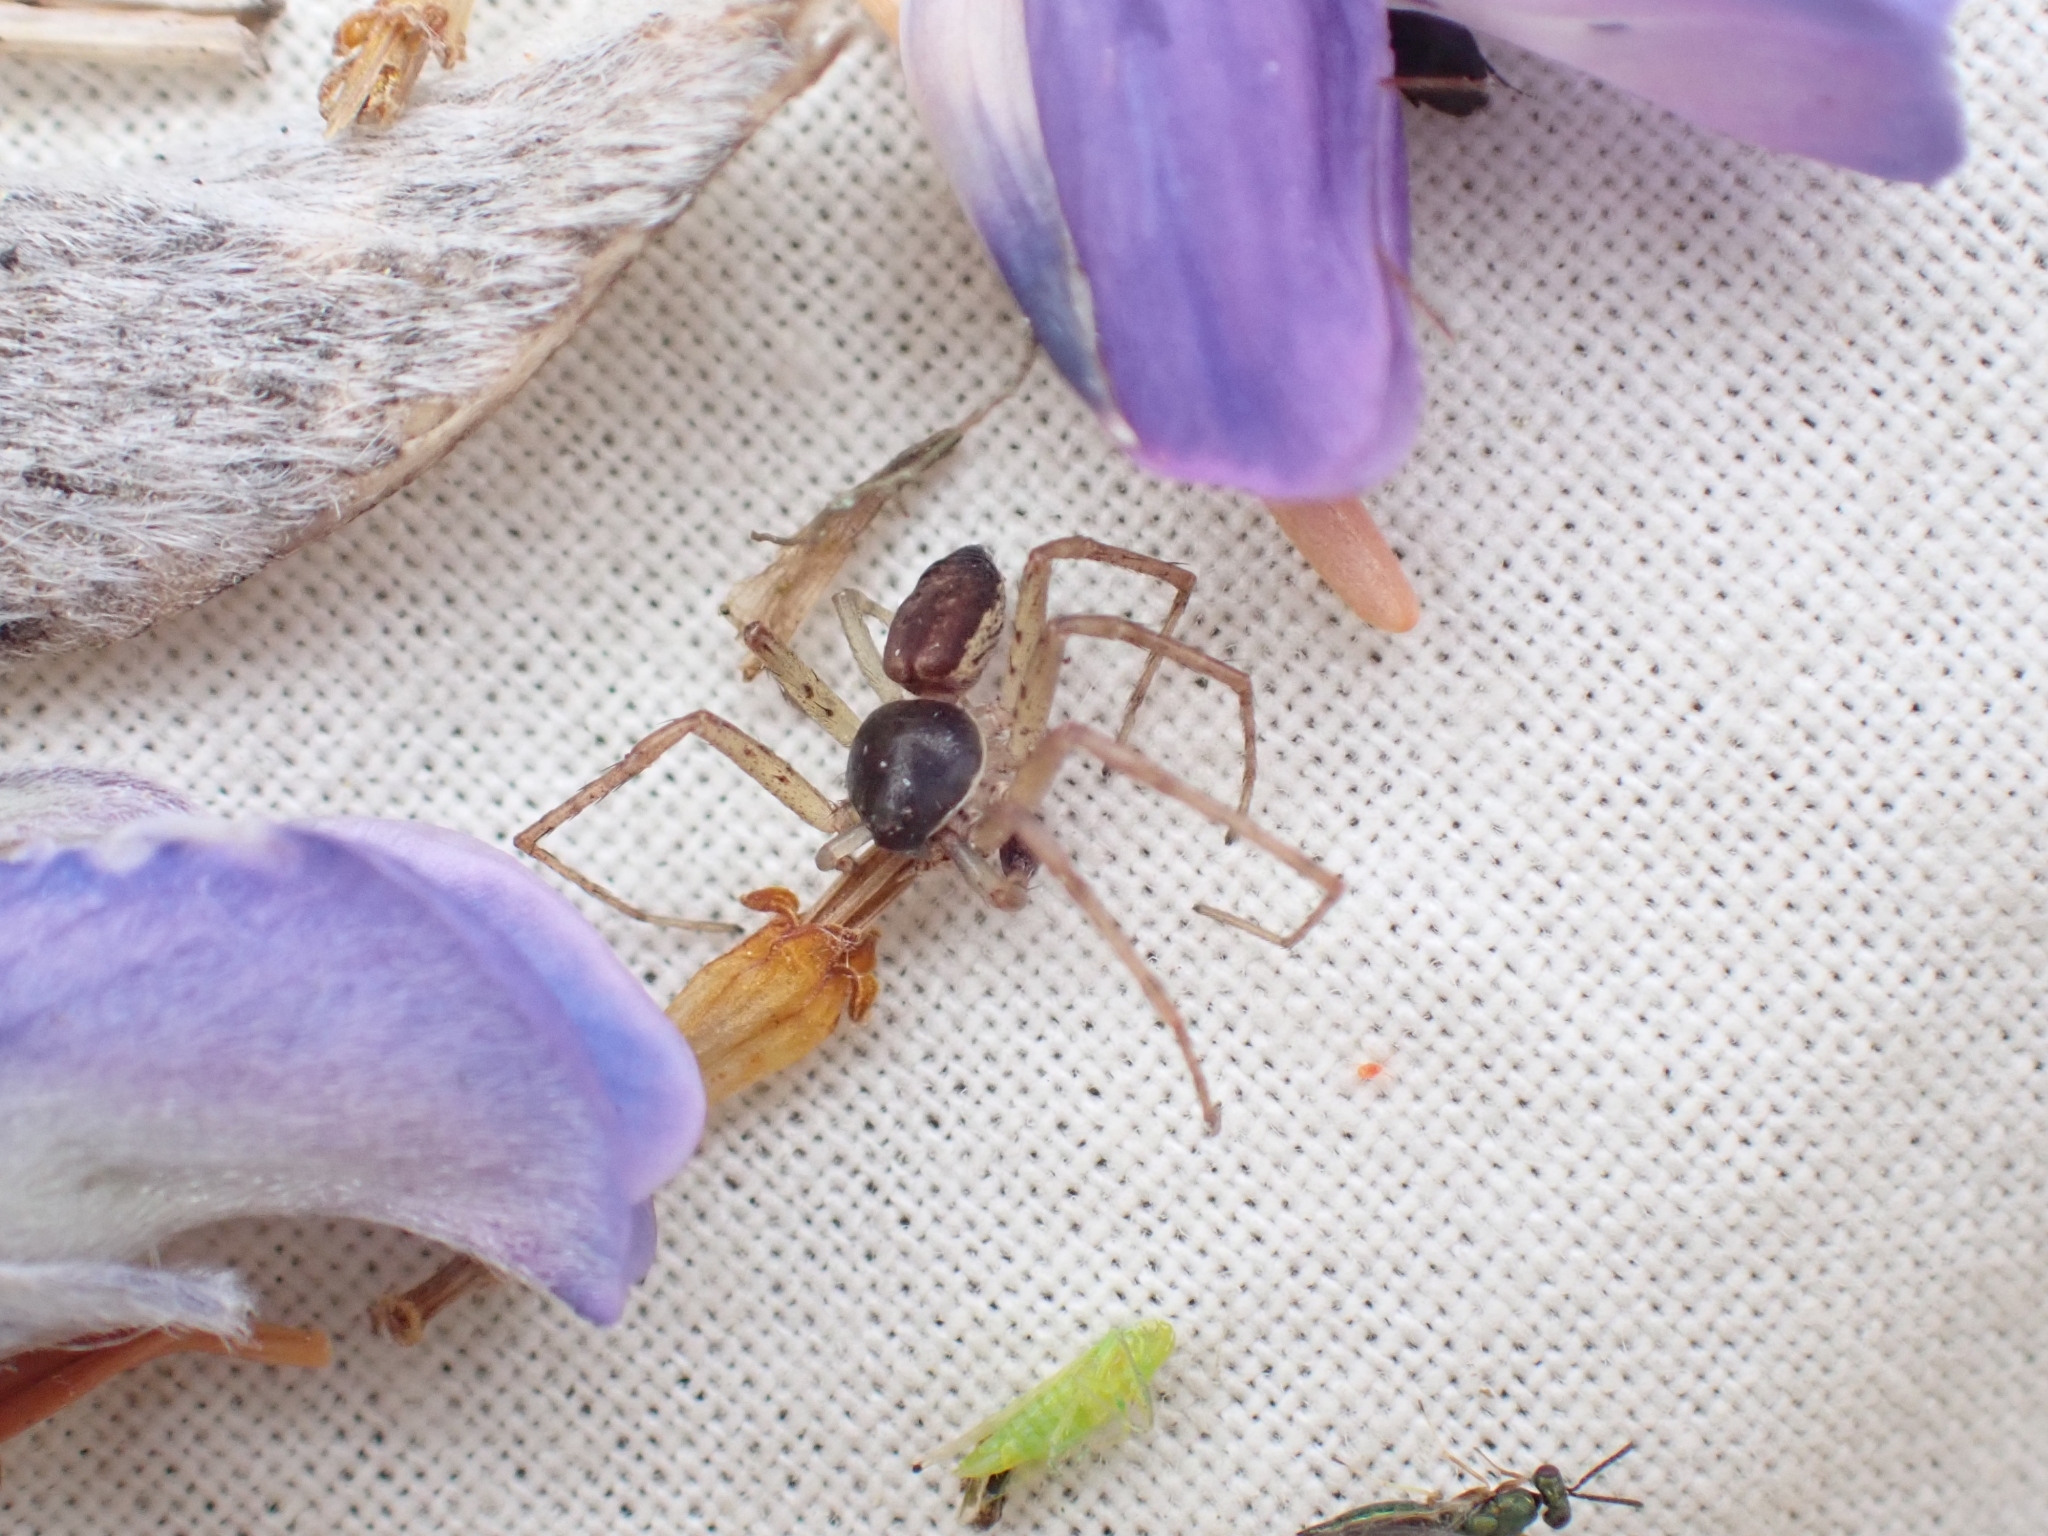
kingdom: Animalia
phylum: Arthropoda
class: Arachnida
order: Araneae
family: Philodromidae
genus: Philodromus
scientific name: Philodromus dispar
